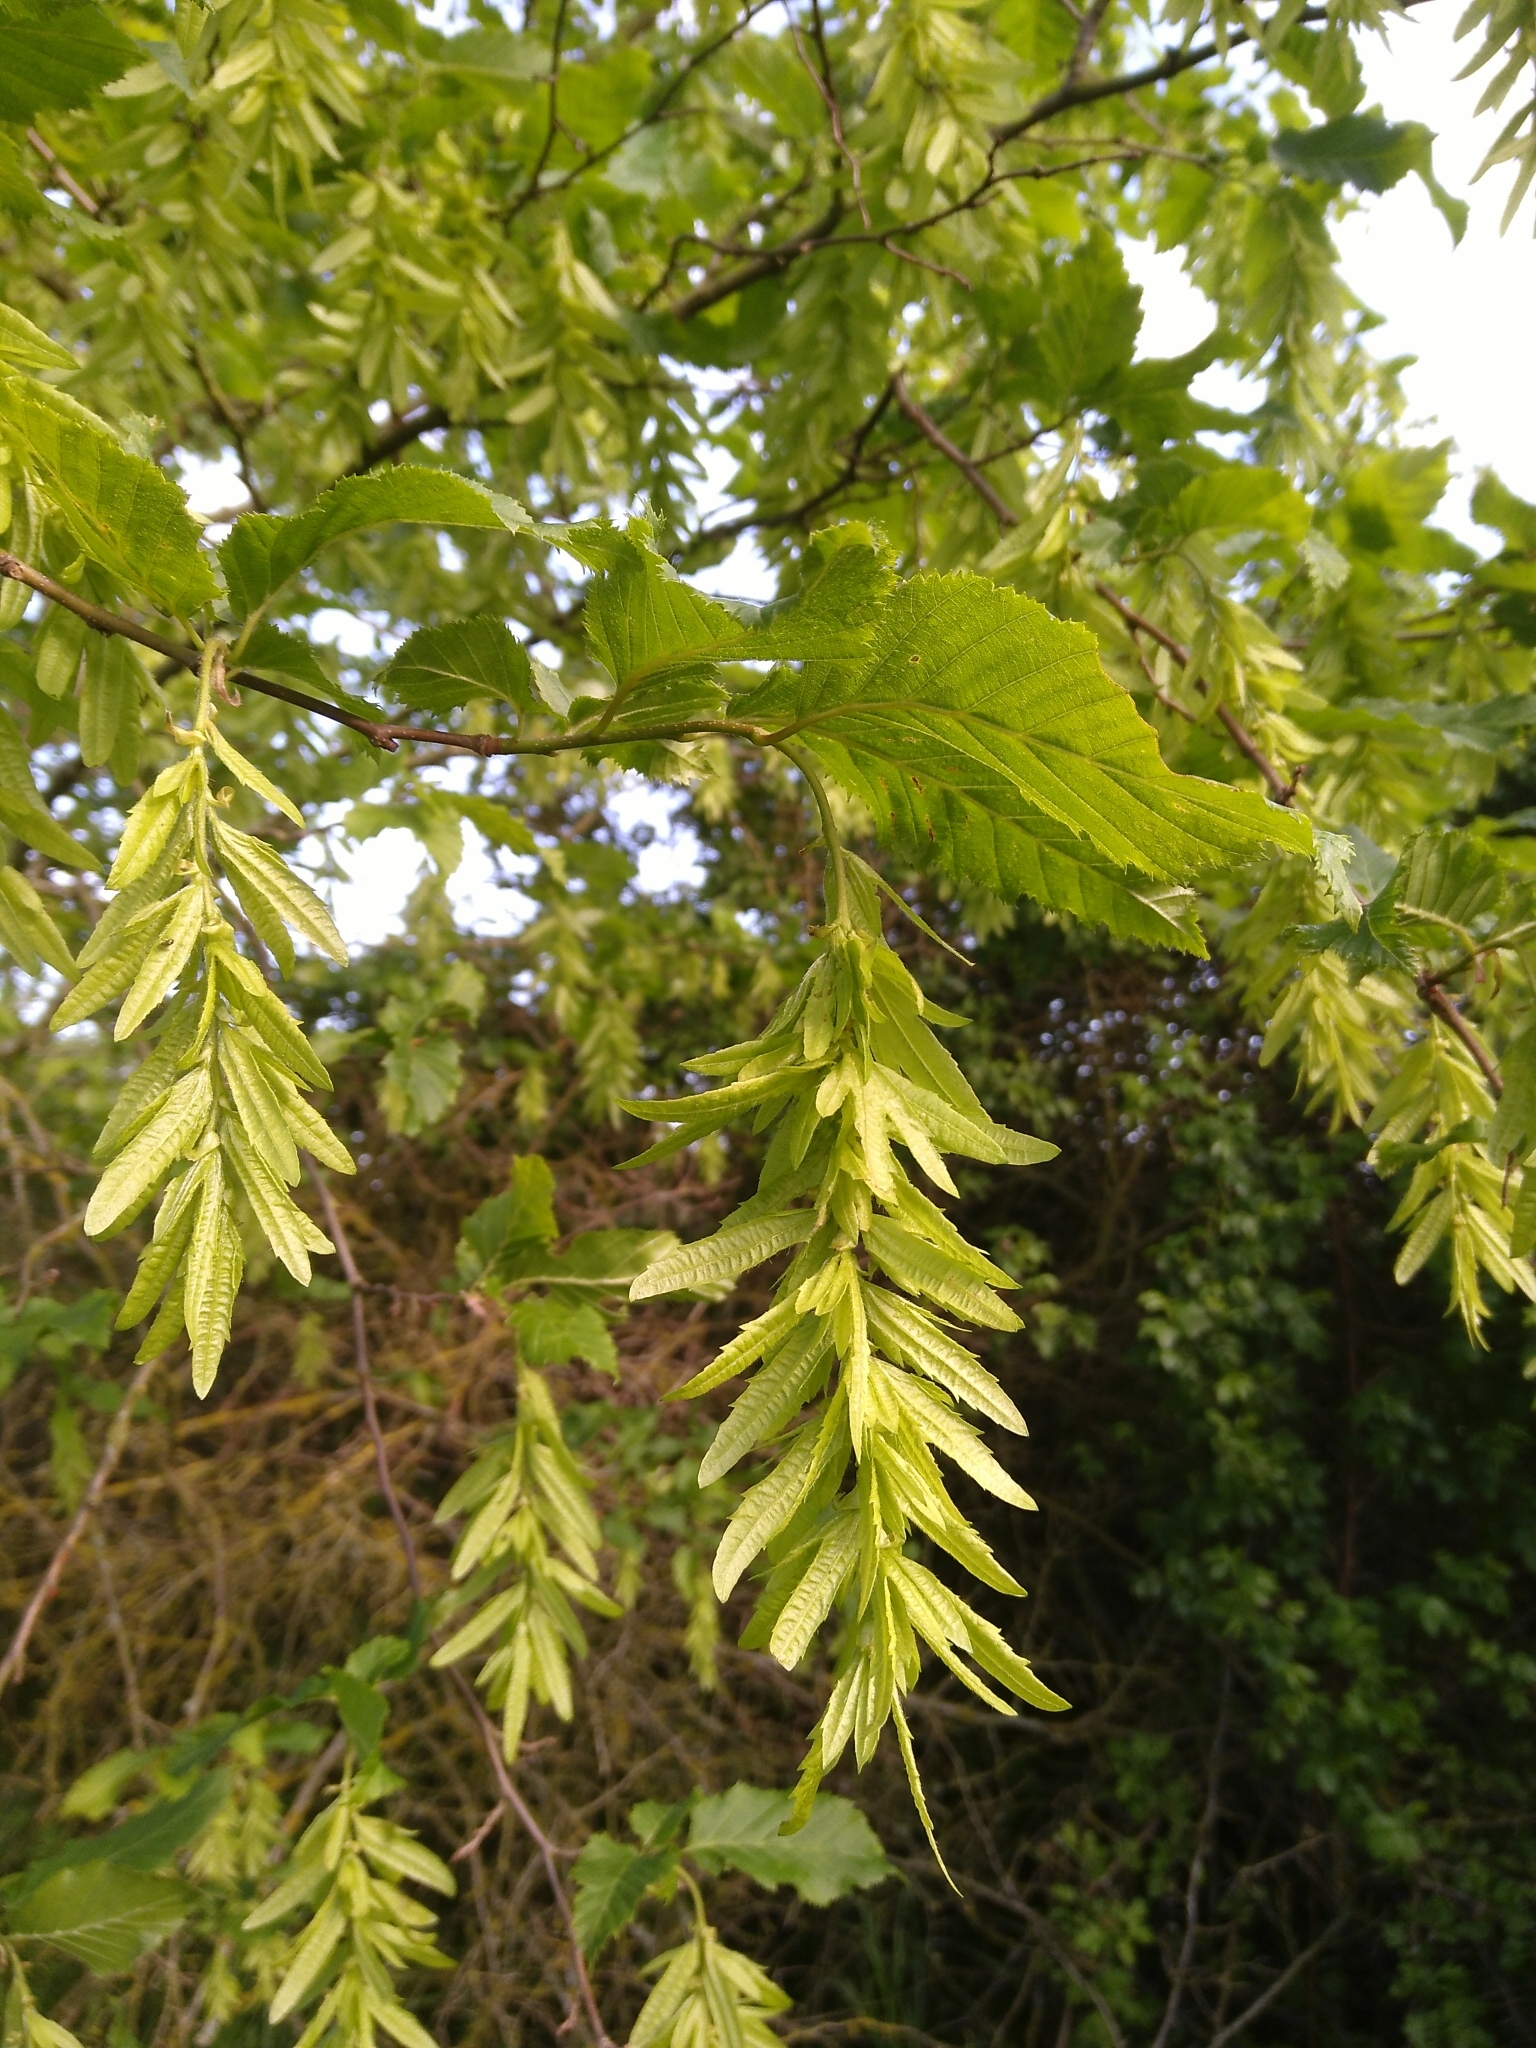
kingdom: Plantae
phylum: Tracheophyta
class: Magnoliopsida
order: Fagales
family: Betulaceae
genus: Carpinus
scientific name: Carpinus betulus
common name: Hornbeam
